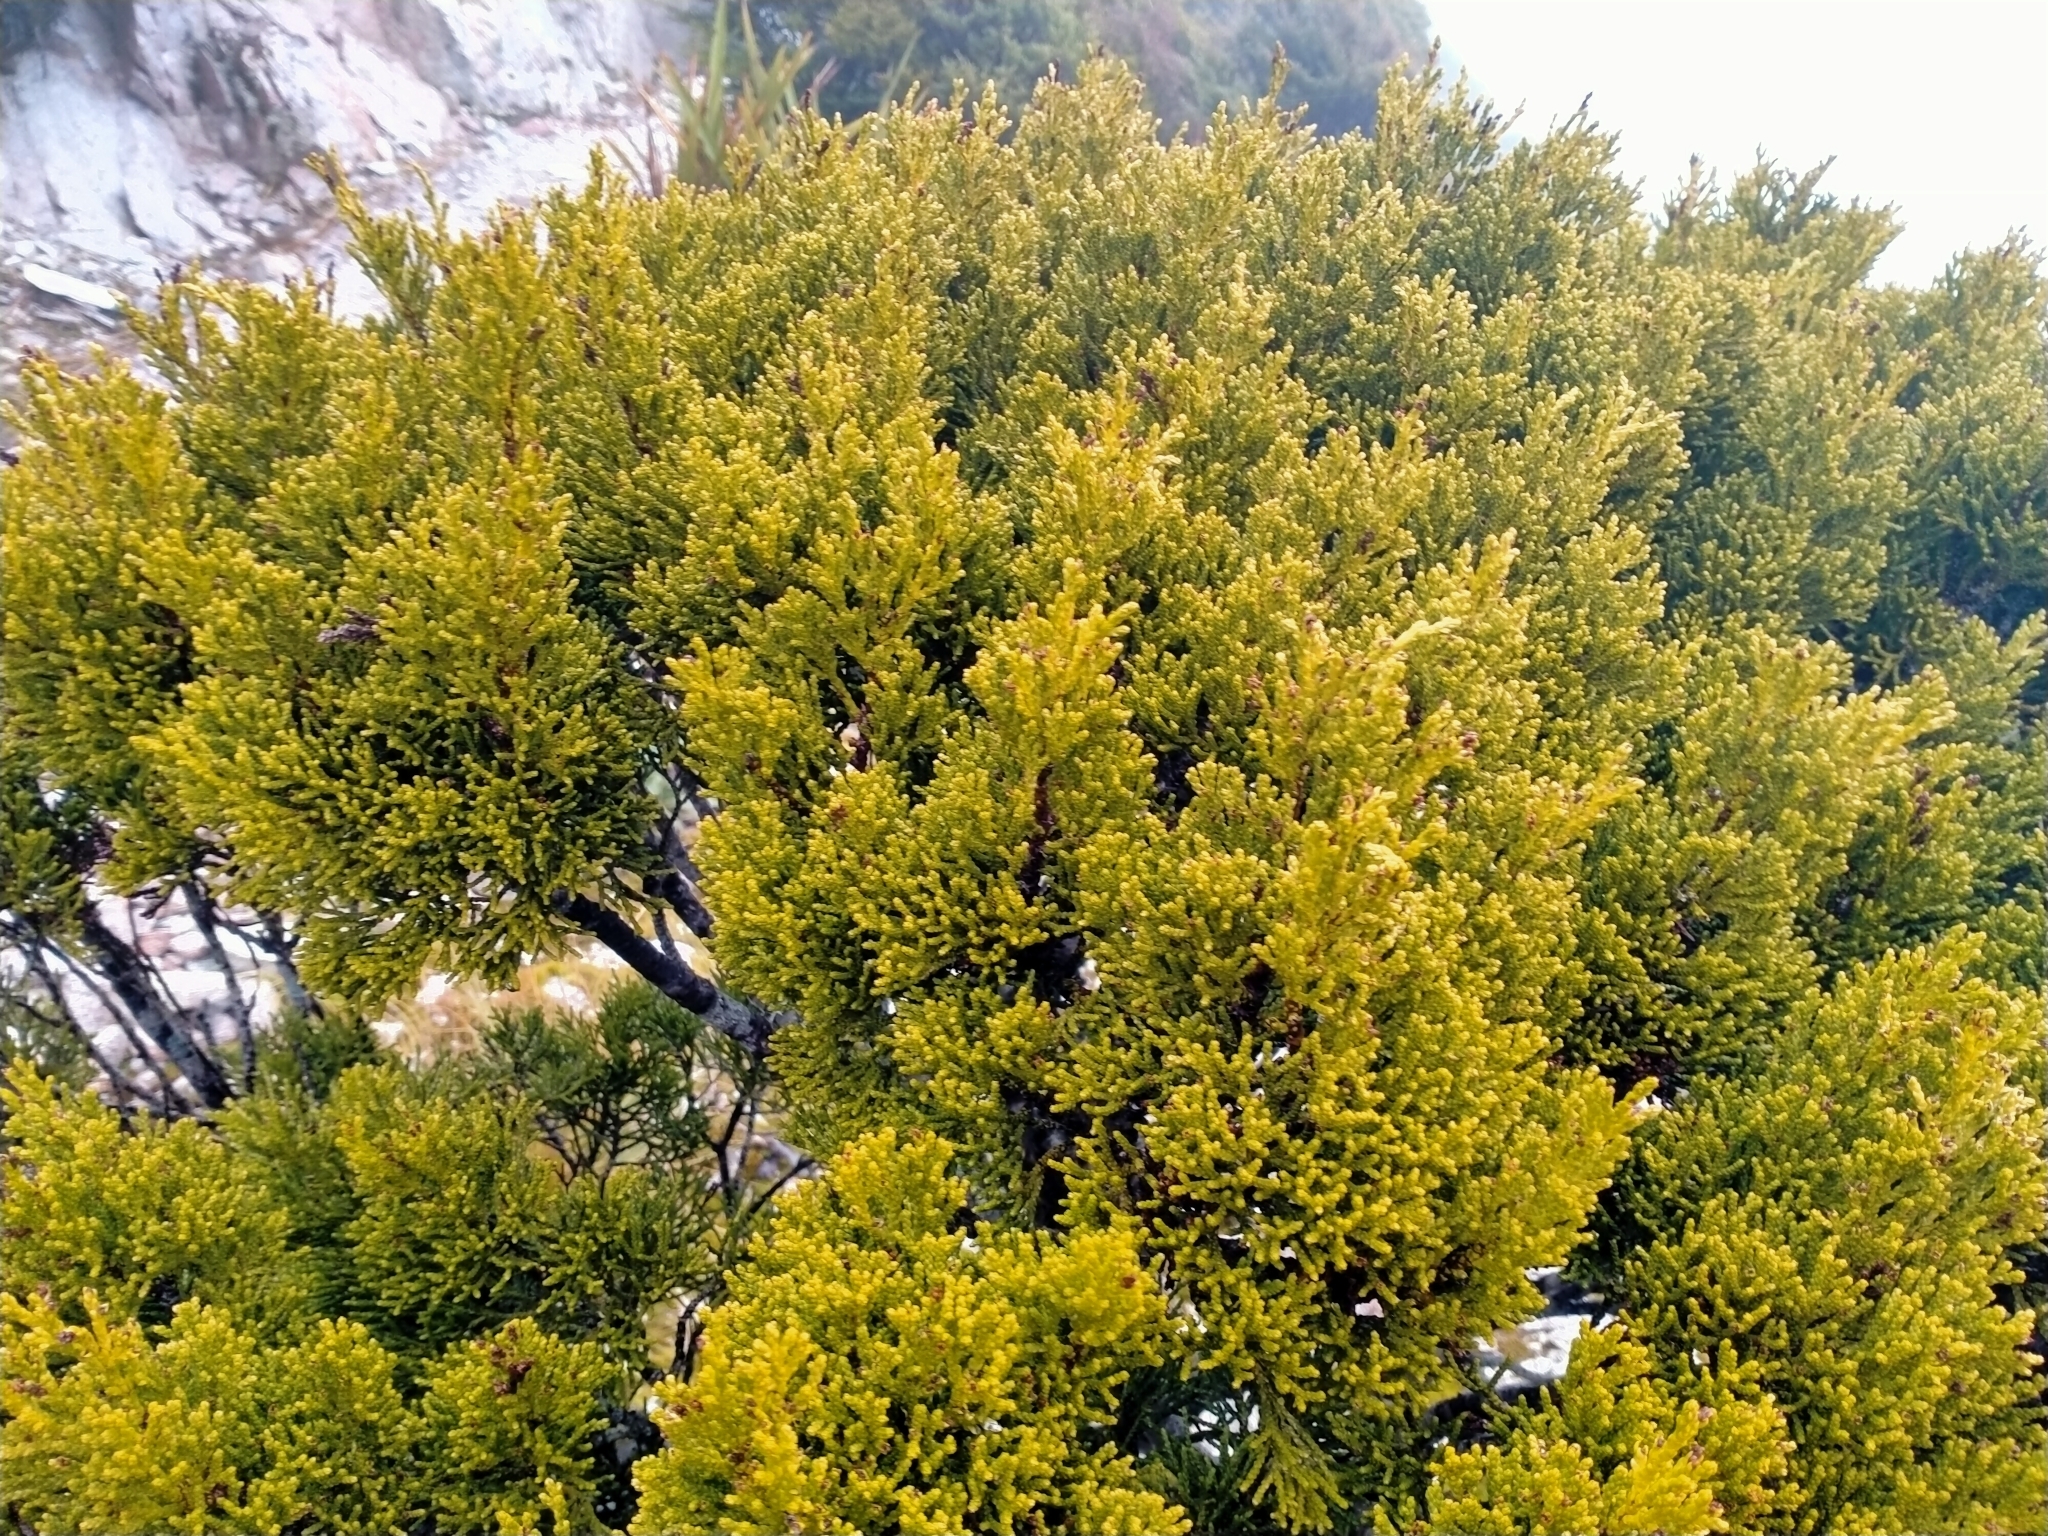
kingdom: Plantae
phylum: Tracheophyta
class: Pinopsida
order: Pinales
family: Podocarpaceae
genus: Halocarpus
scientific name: Halocarpus biformis
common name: Alpine tarwood
